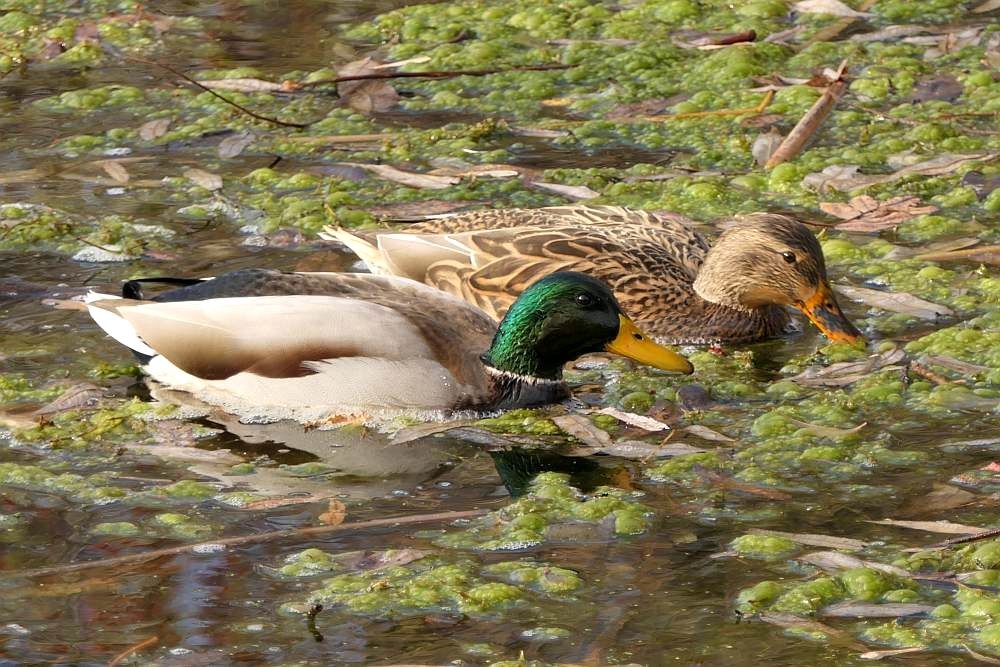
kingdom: Animalia
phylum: Chordata
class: Aves
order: Anseriformes
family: Anatidae
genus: Anas
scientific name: Anas platyrhynchos
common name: Mallard
